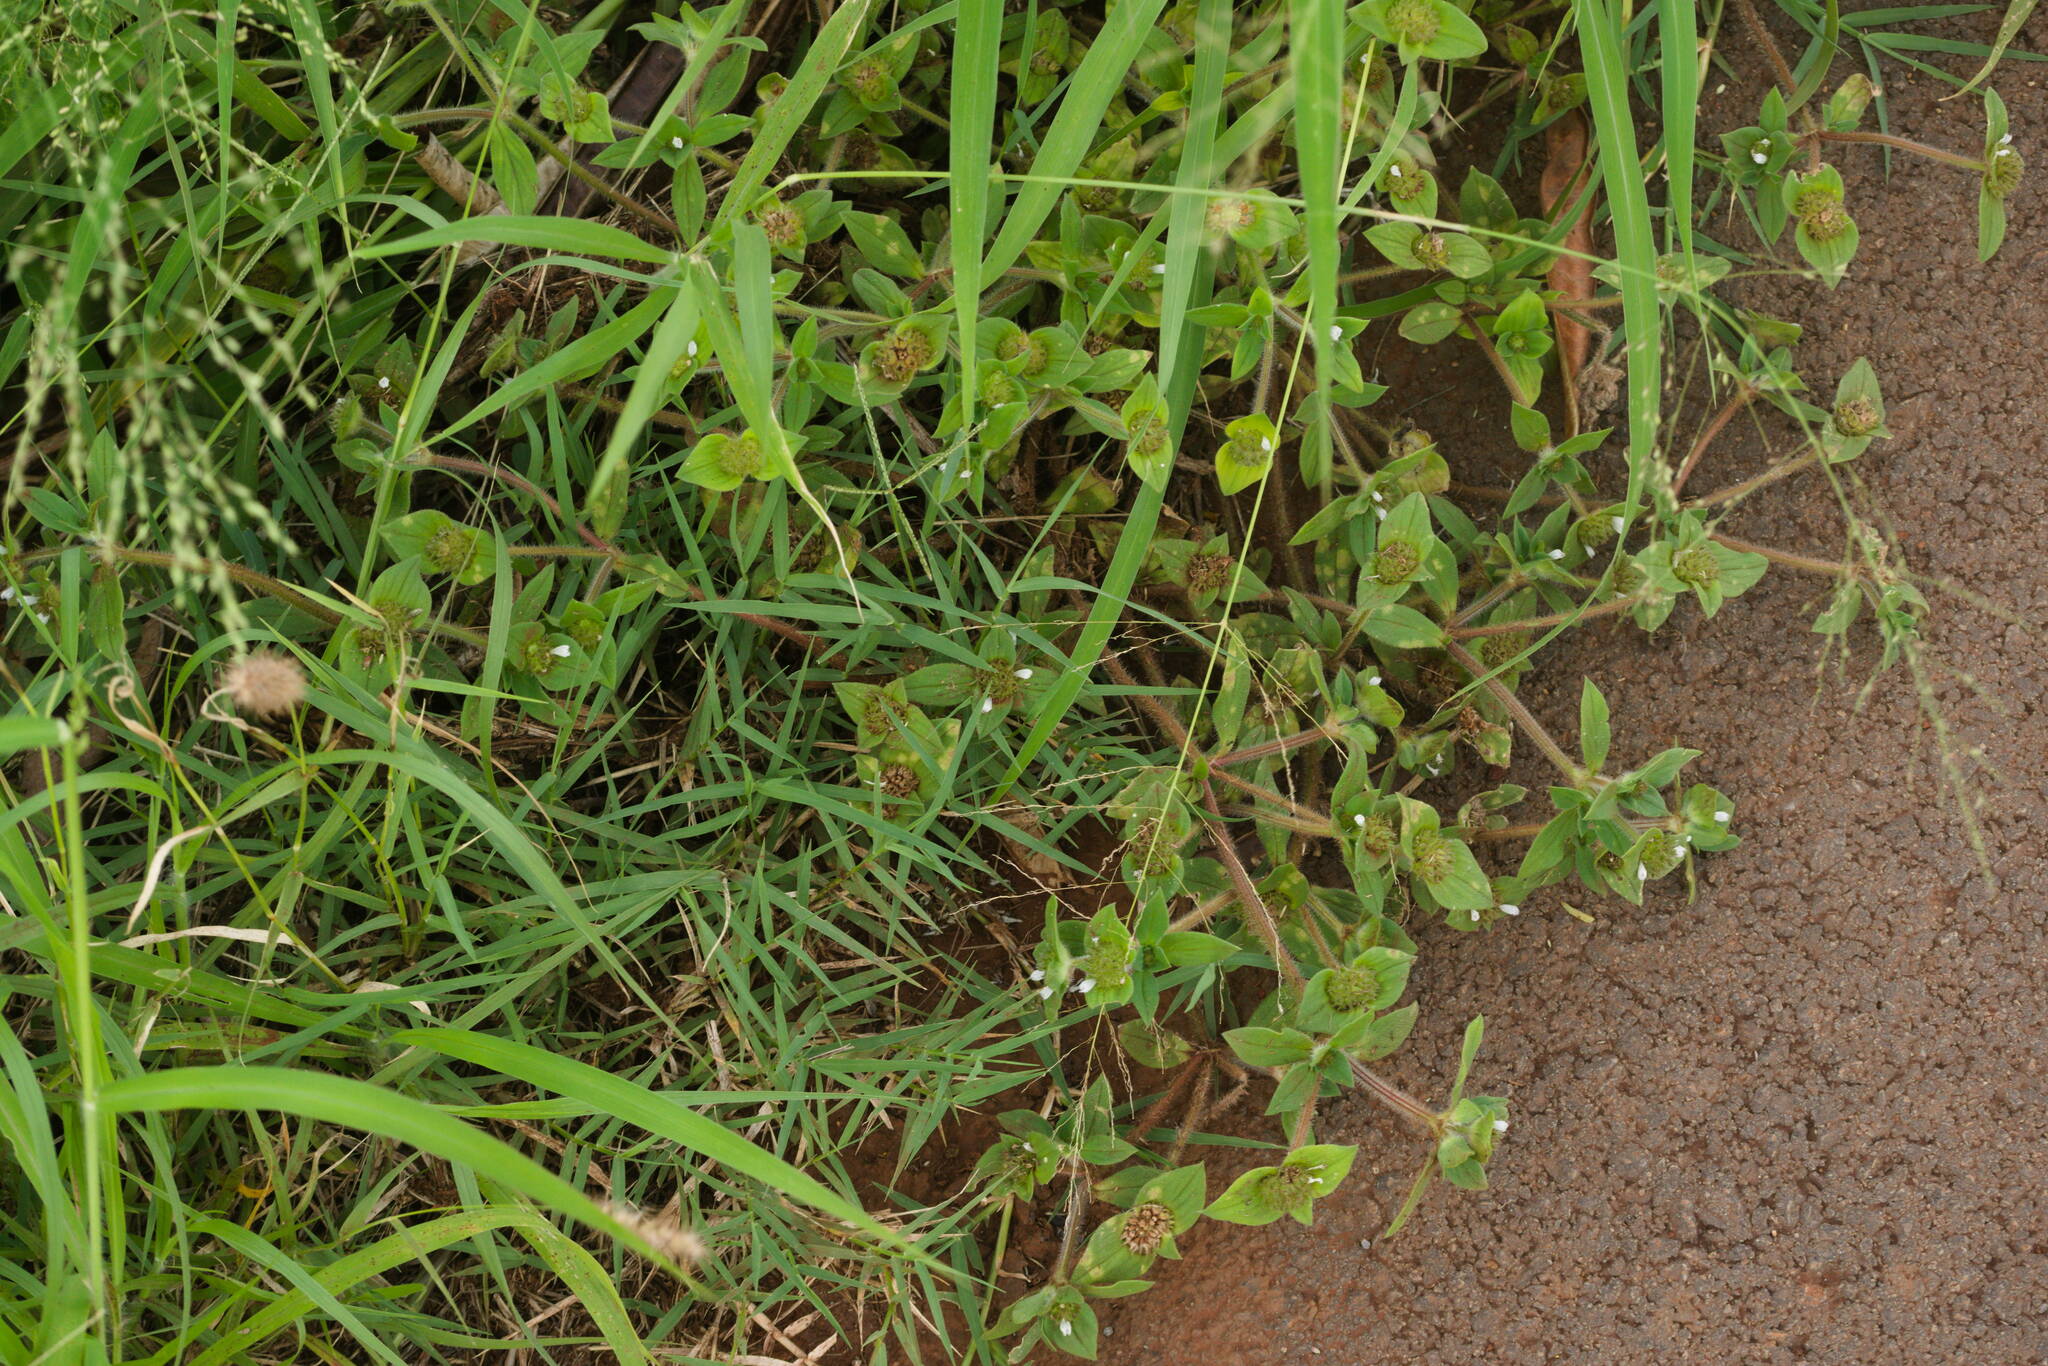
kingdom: Plantae
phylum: Tracheophyta
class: Magnoliopsida
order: Gentianales
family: Rubiaceae
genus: Richardia
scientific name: Richardia scabra
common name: Rough mexican clover
